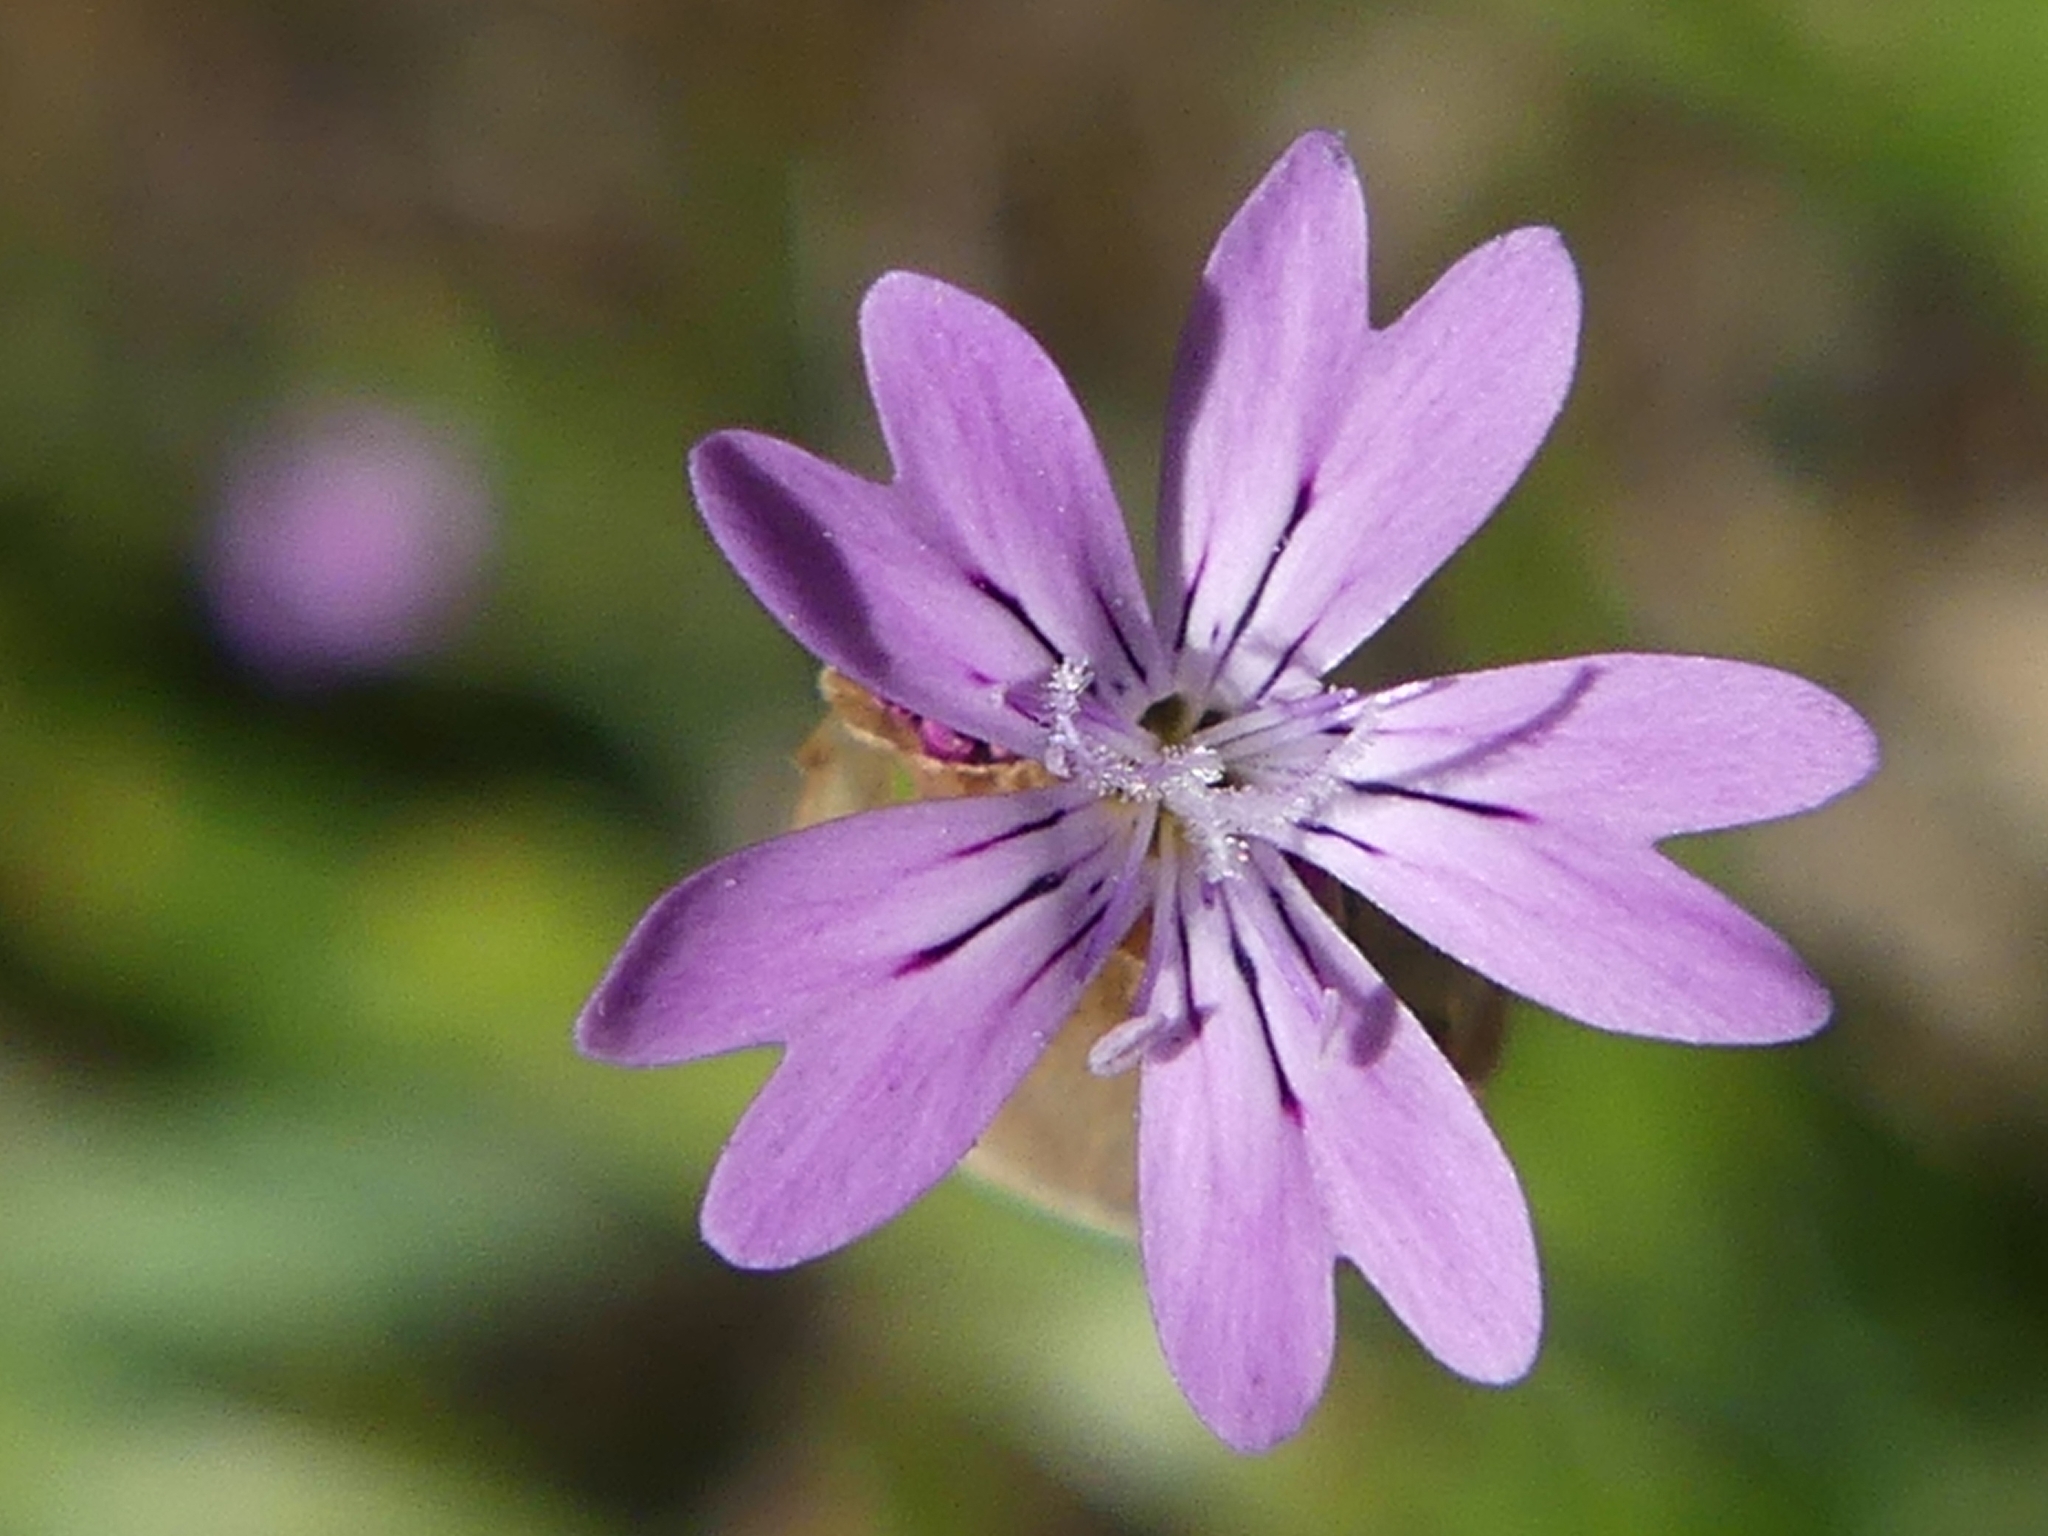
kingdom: Plantae
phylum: Tracheophyta
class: Magnoliopsida
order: Caryophyllales
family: Caryophyllaceae
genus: Petrorhagia
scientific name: Petrorhagia nanteuilii
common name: Proliferous pink
